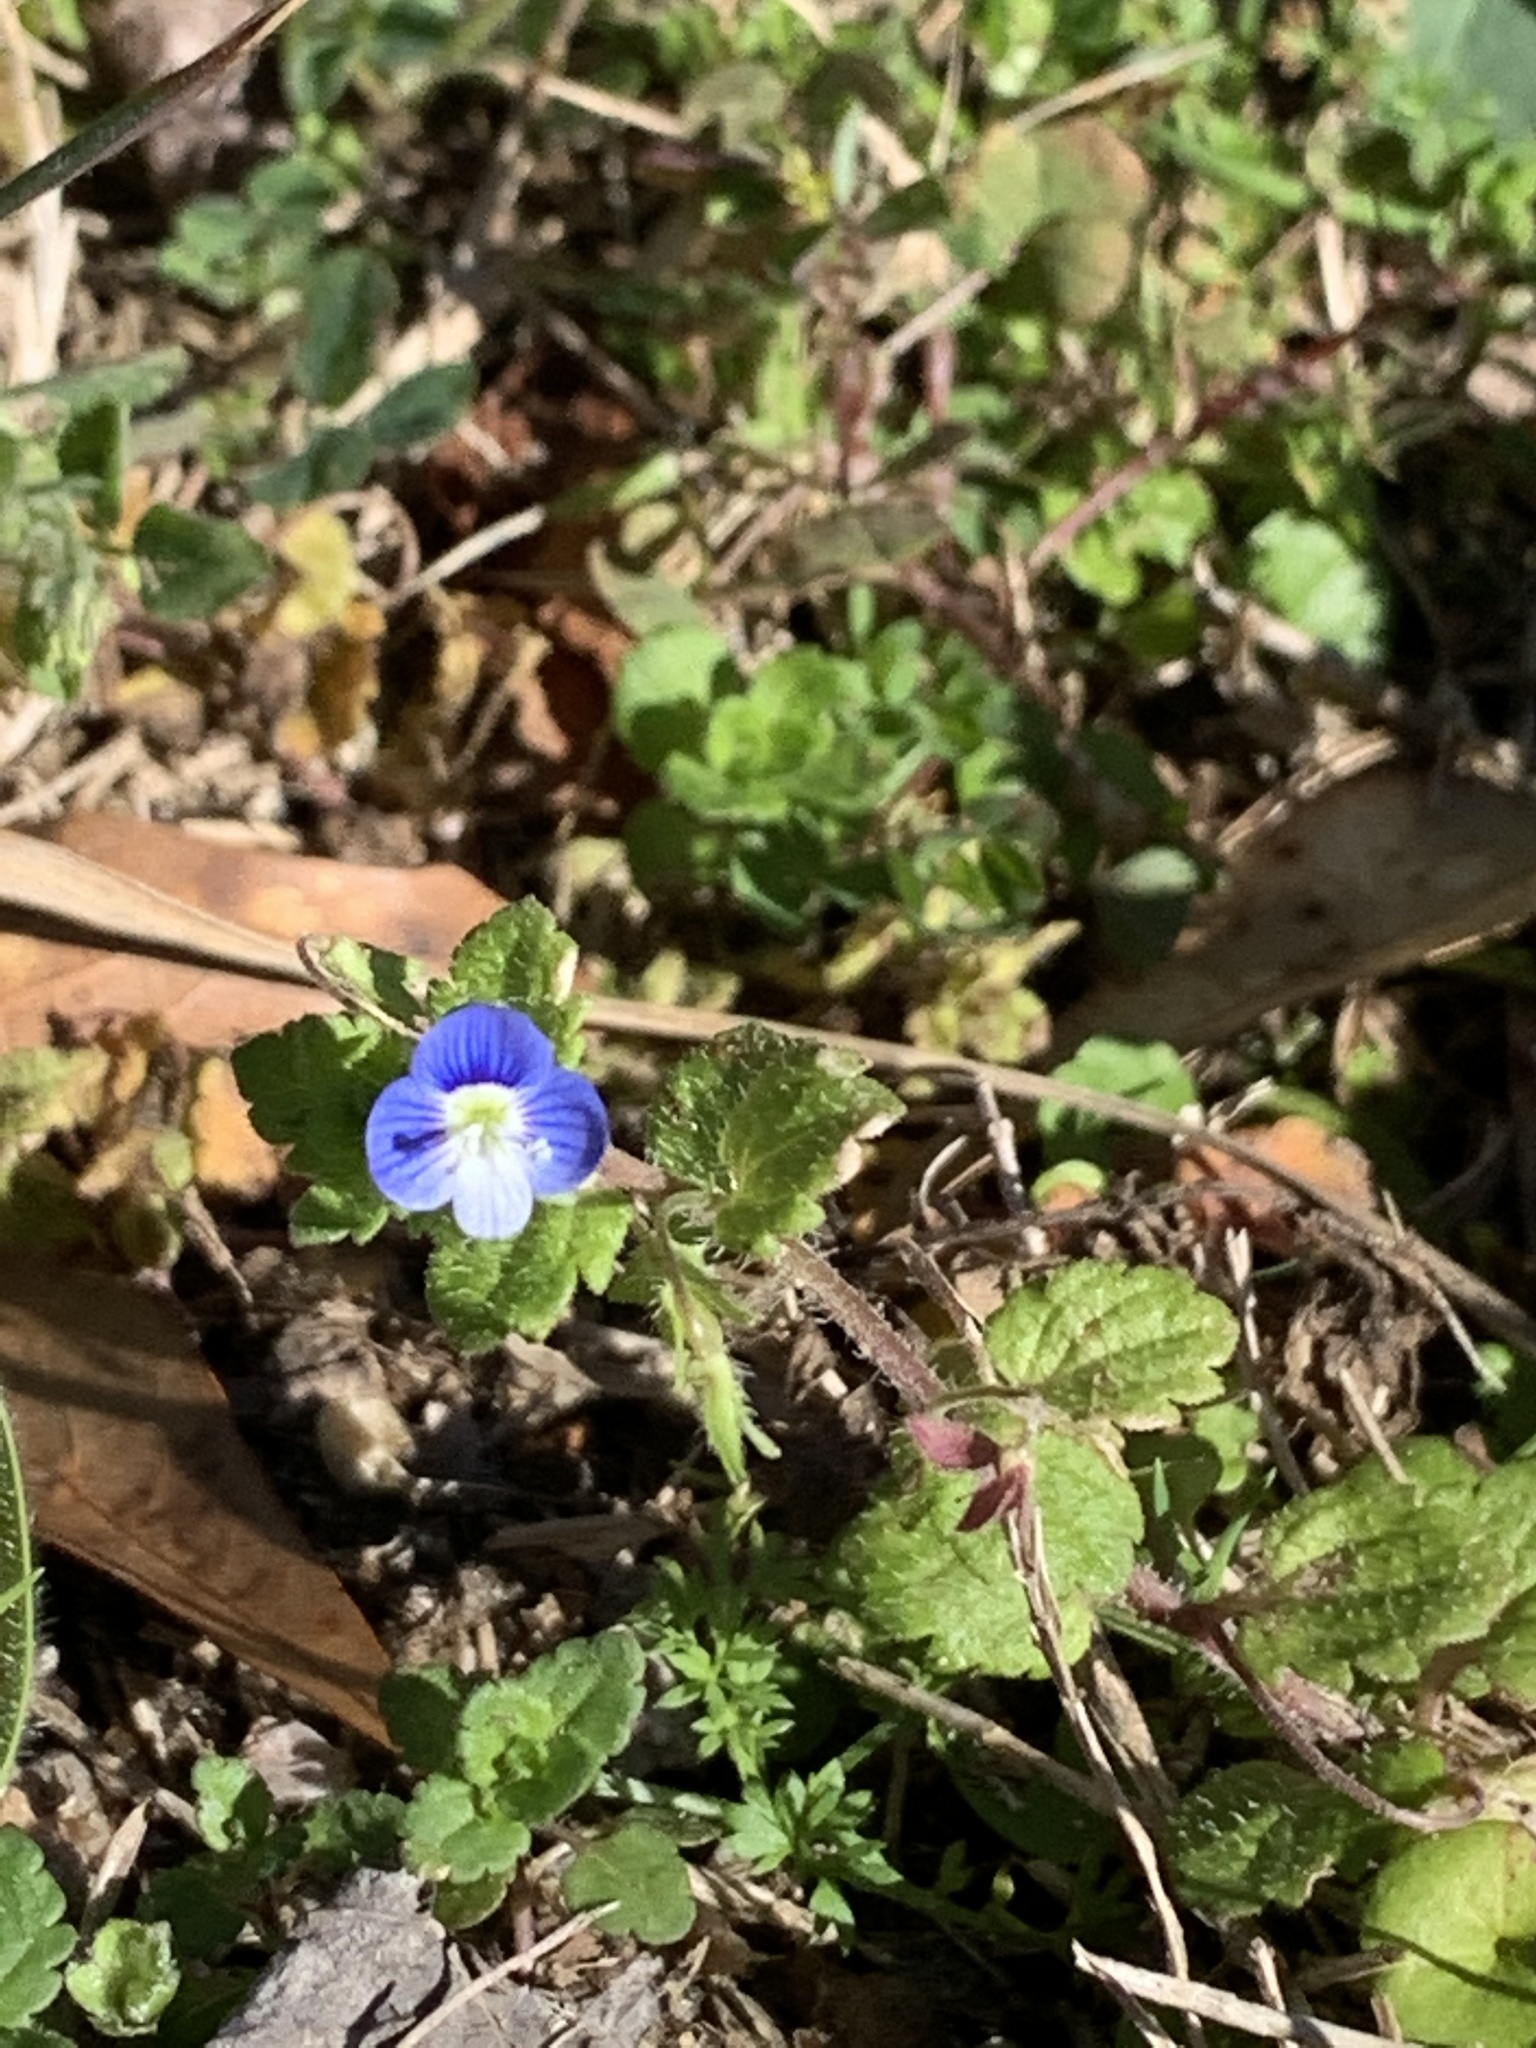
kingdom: Plantae
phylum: Tracheophyta
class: Magnoliopsida
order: Lamiales
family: Plantaginaceae
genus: Veronica
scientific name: Veronica persica
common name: Common field-speedwell
